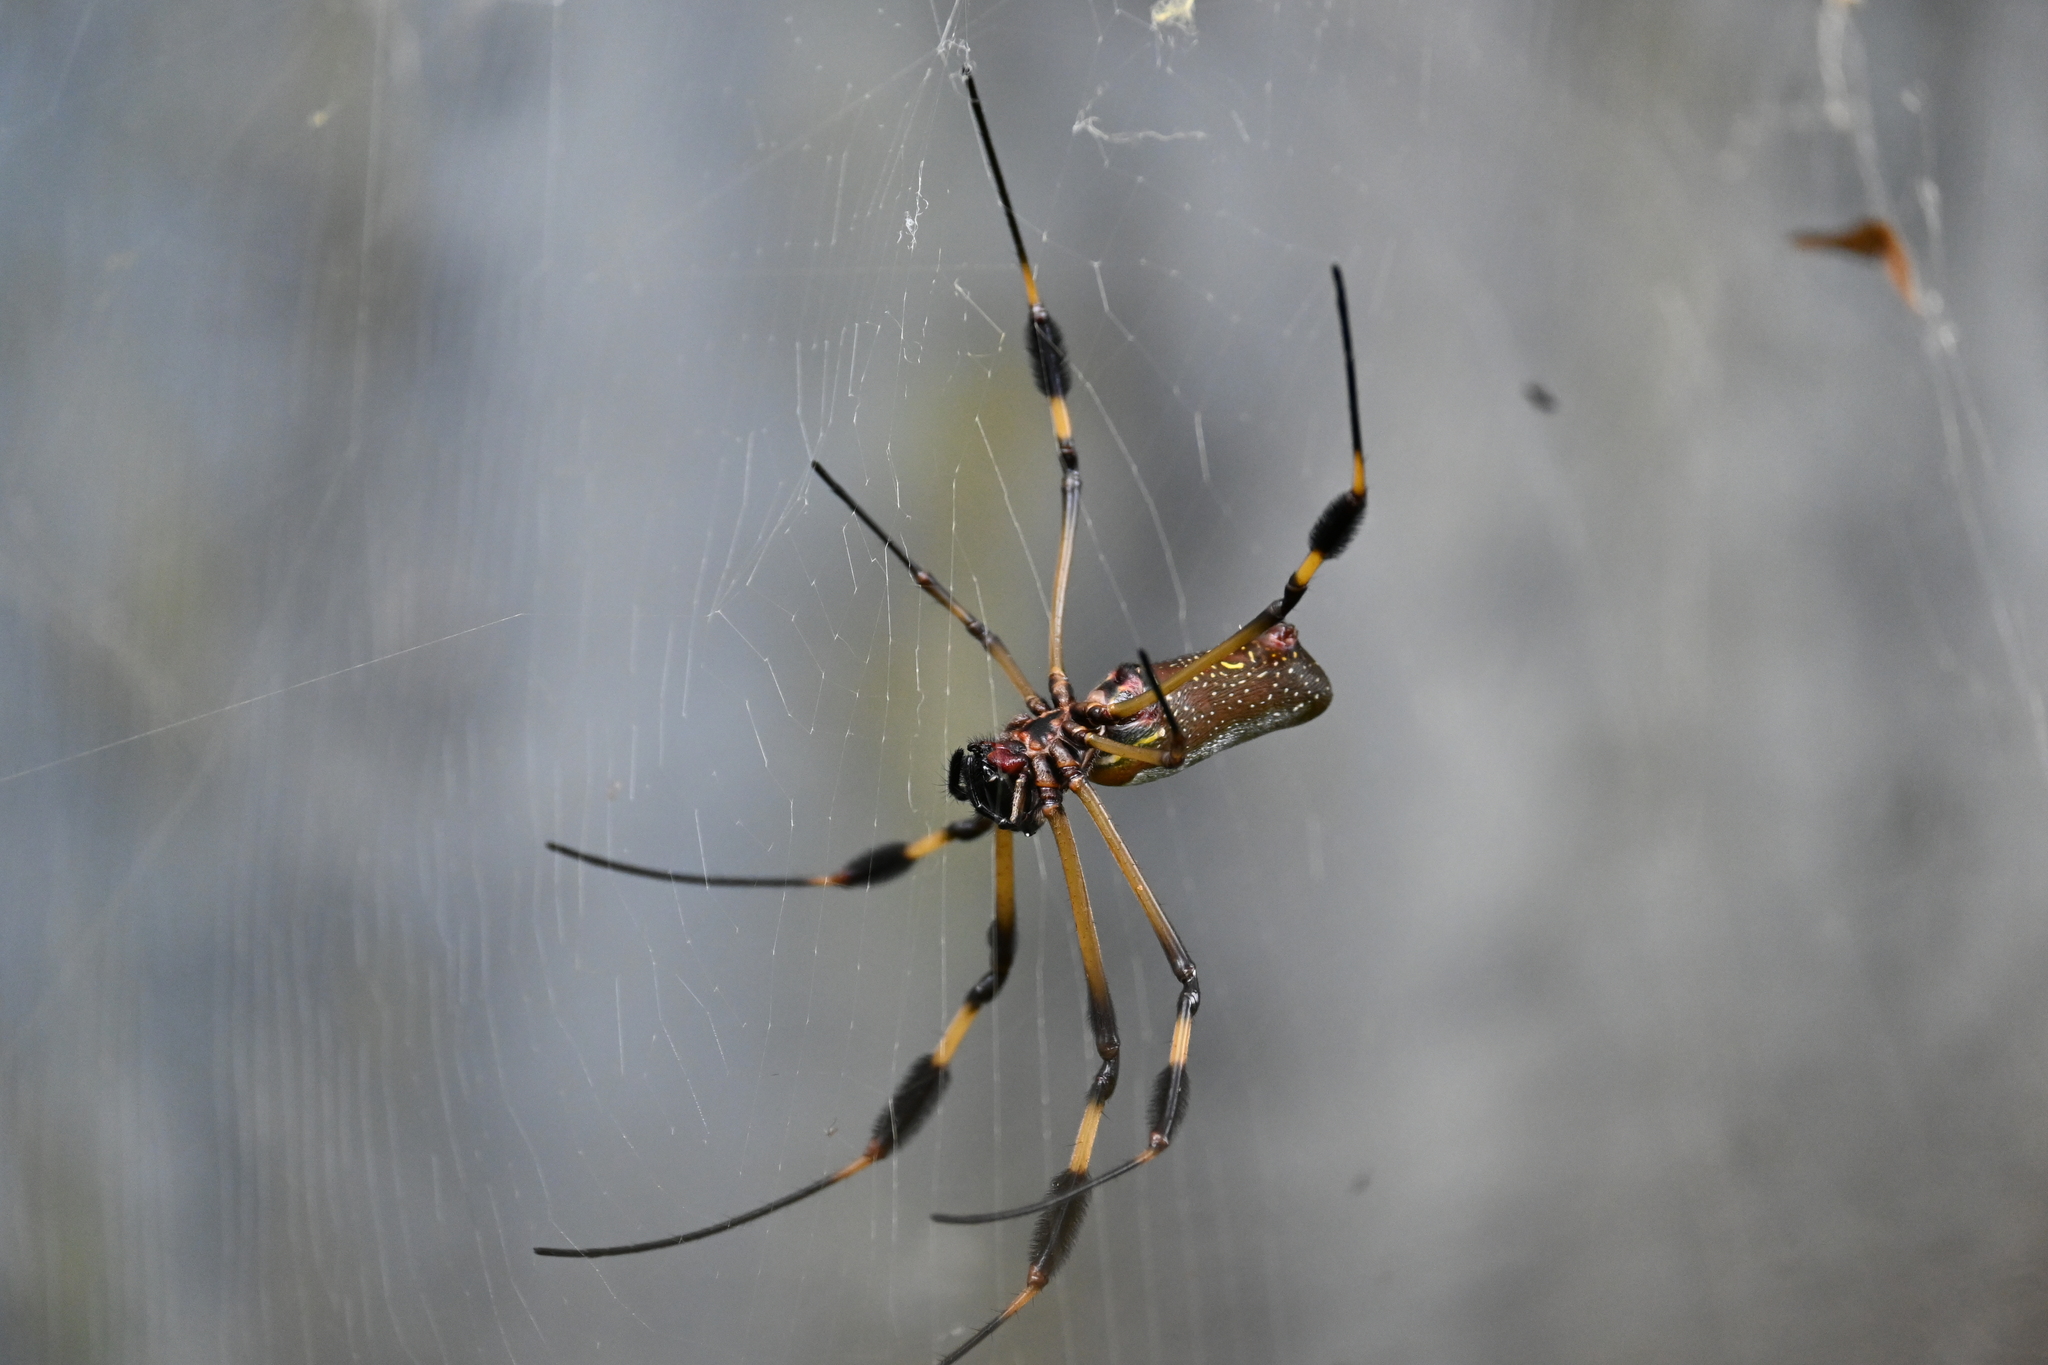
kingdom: Animalia
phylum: Arthropoda
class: Arachnida
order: Araneae
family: Araneidae
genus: Trichonephila
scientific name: Trichonephila clavipes
